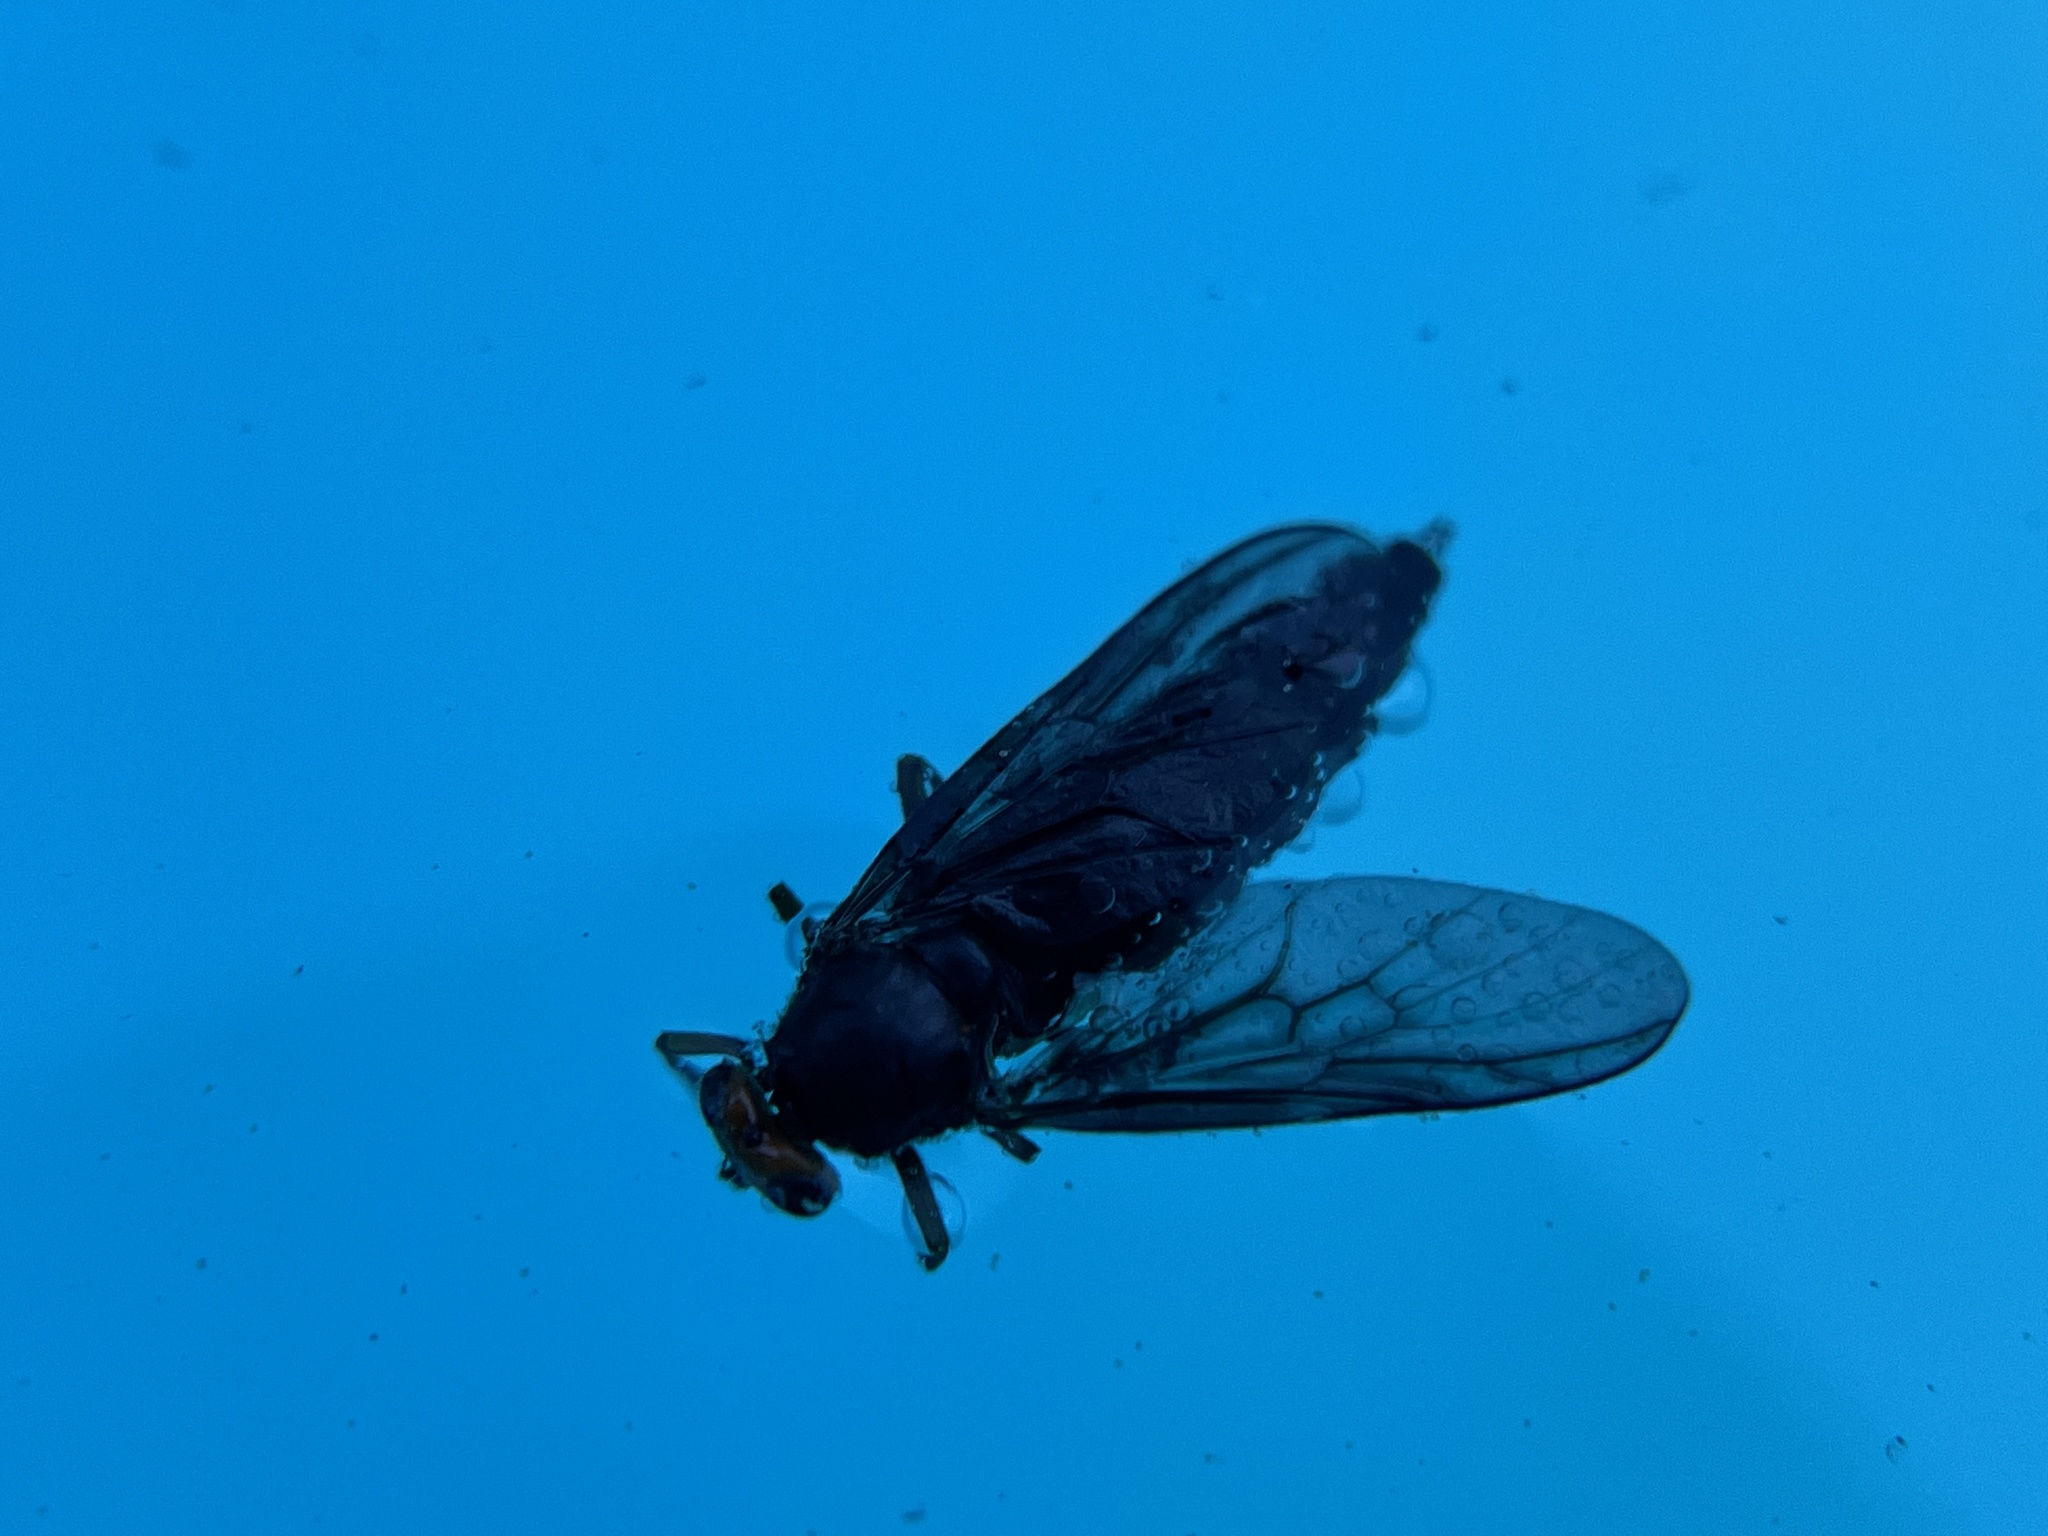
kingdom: Animalia
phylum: Arthropoda
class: Insecta
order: Diptera
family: Stratiomyidae
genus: Inopus
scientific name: Inopus rubriceps
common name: Soldier fly
